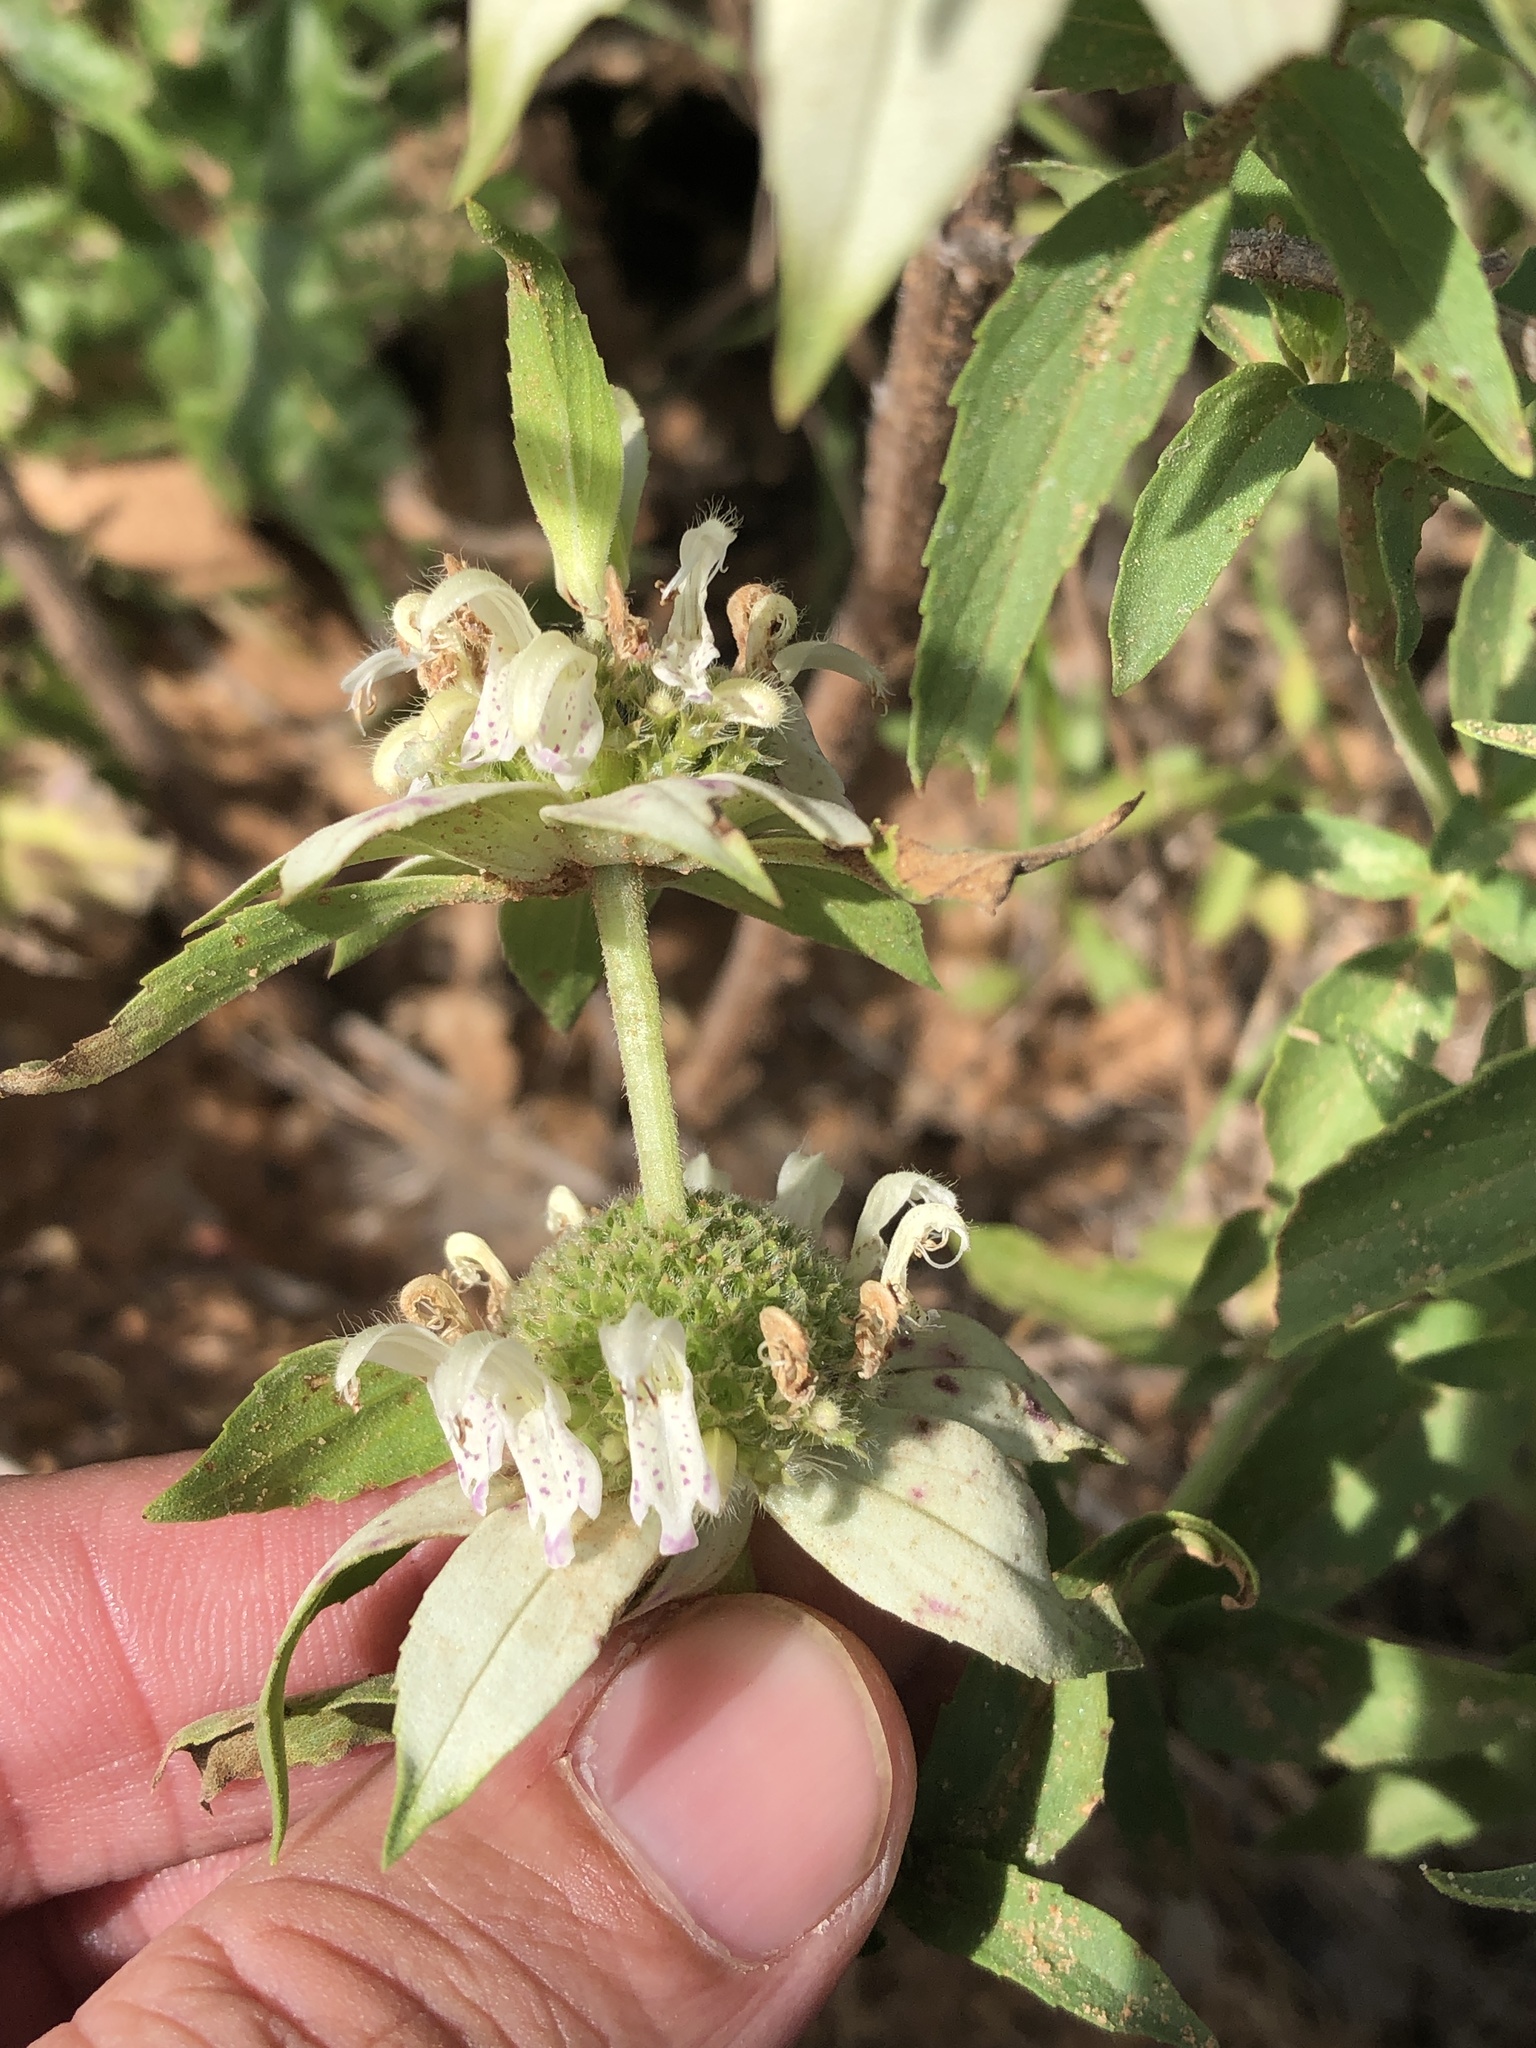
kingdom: Plantae
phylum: Tracheophyta
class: Magnoliopsida
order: Lamiales
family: Lamiaceae
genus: Monarda
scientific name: Monarda punctata
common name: Dotted monarda
